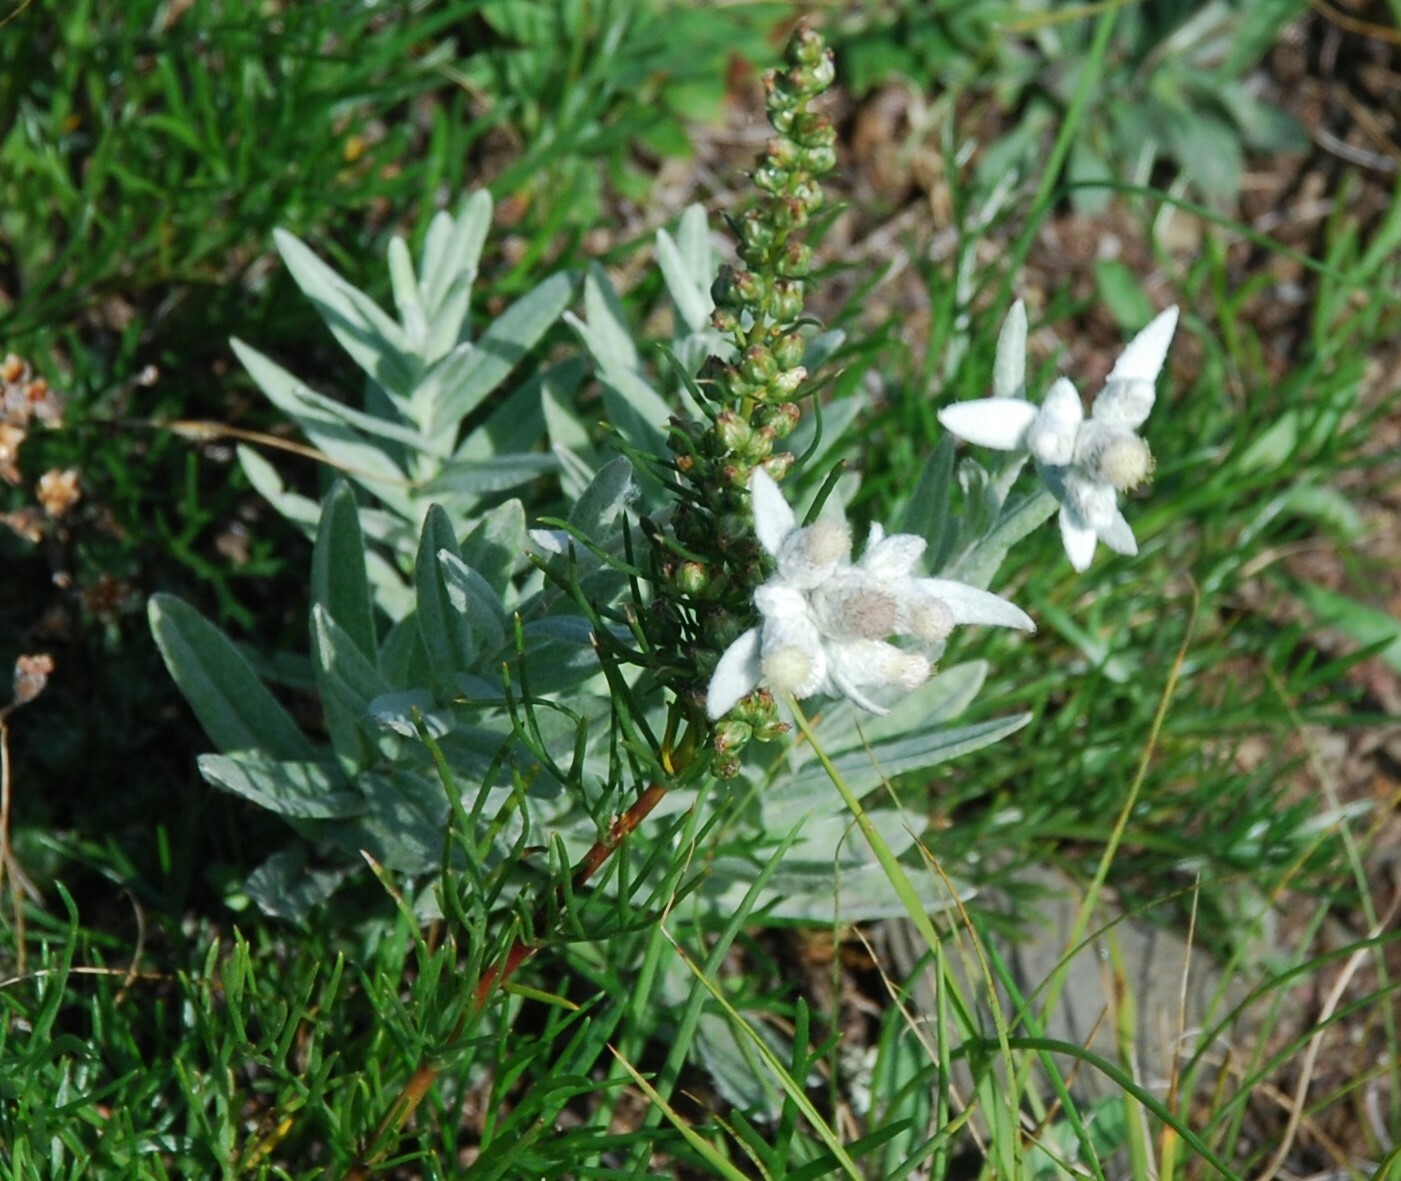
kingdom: Plantae
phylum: Tracheophyta
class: Magnoliopsida
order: Asterales
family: Asteraceae
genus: Leontopodium
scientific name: Leontopodium leontopodioides
